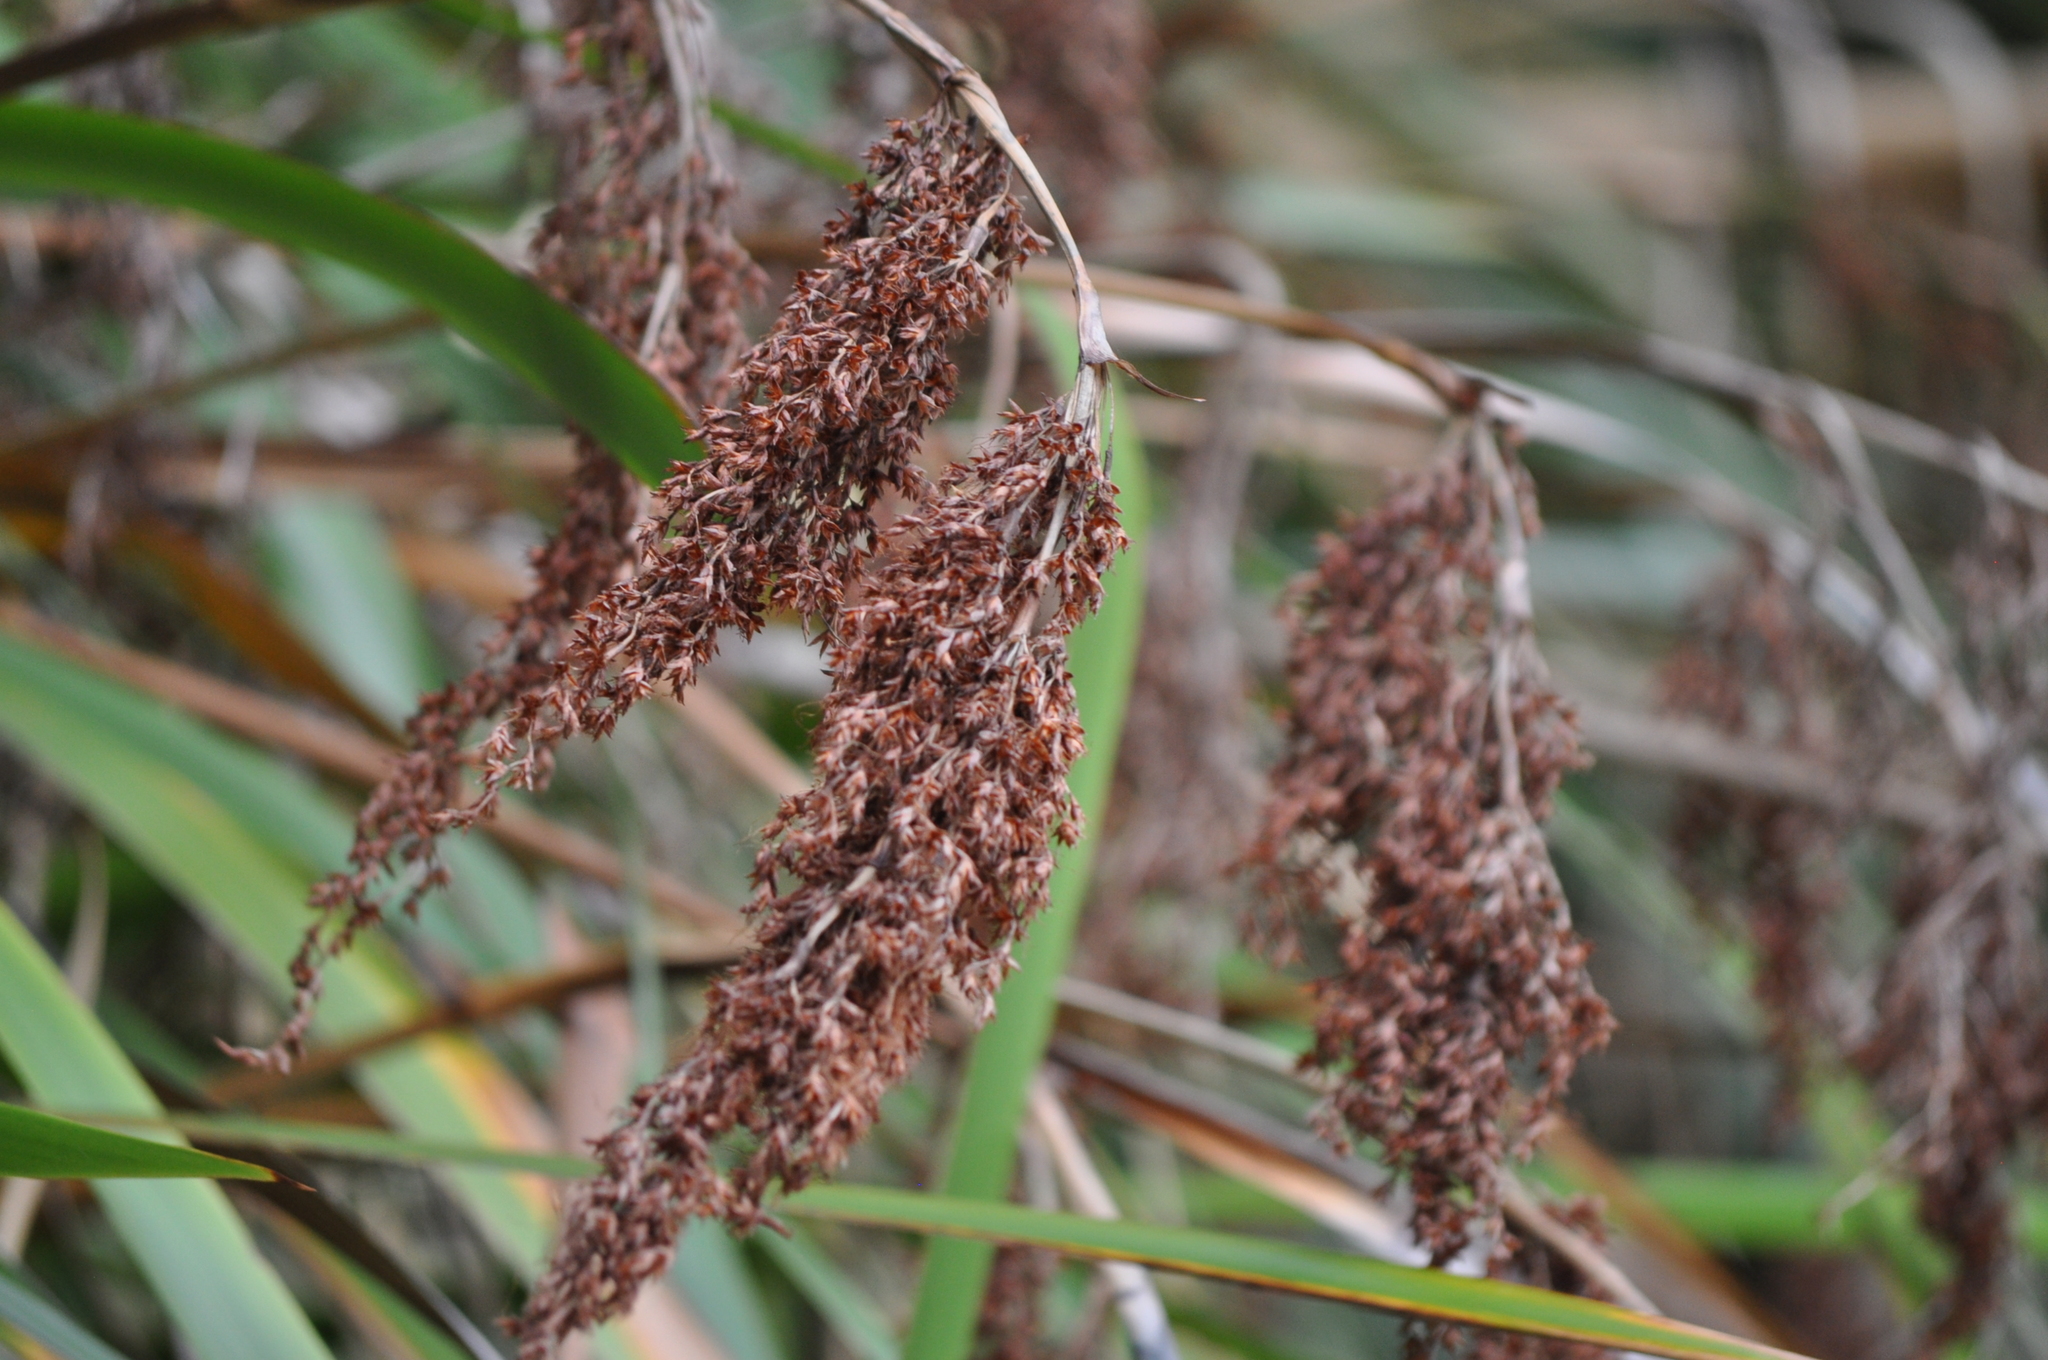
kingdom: Plantae
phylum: Tracheophyta
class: Liliopsida
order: Poales
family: Cyperaceae
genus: Machaerina
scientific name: Machaerina sinclairii
